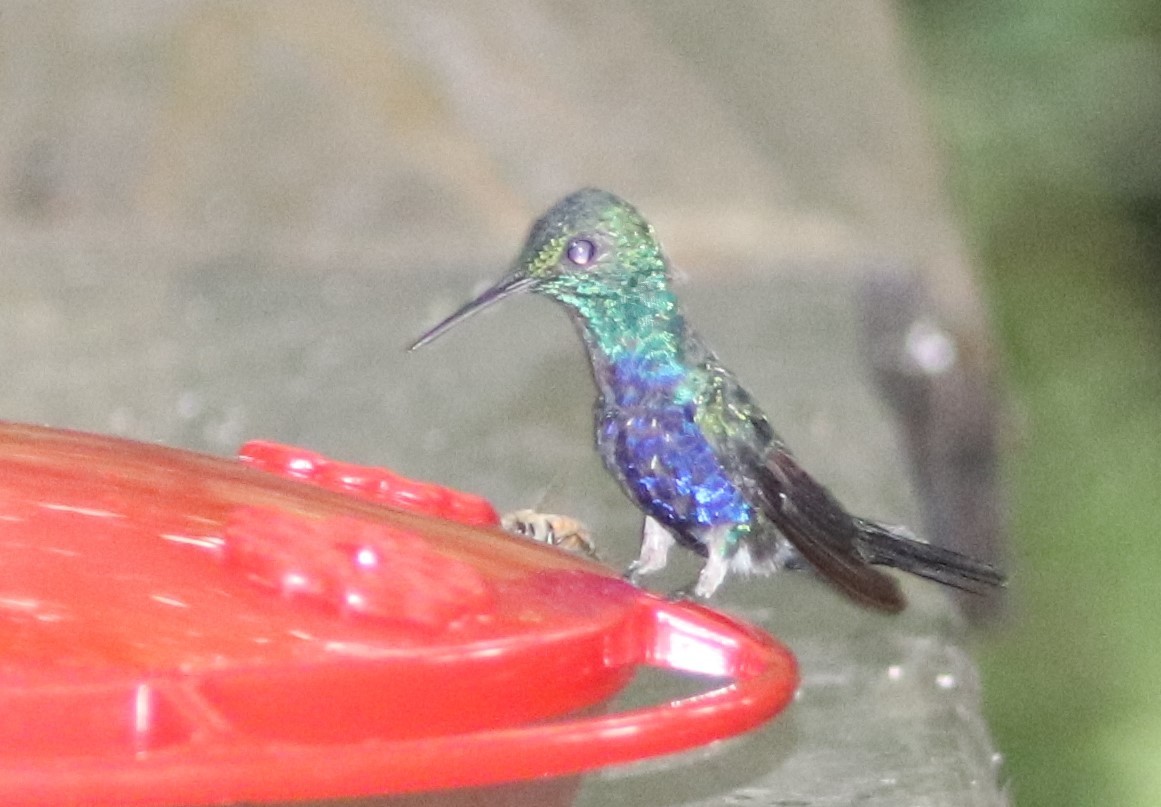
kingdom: Animalia
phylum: Chordata
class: Aves
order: Apodiformes
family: Trochilidae
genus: Chlorestes
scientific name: Chlorestes julie
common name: Violet-bellied hummingbird
